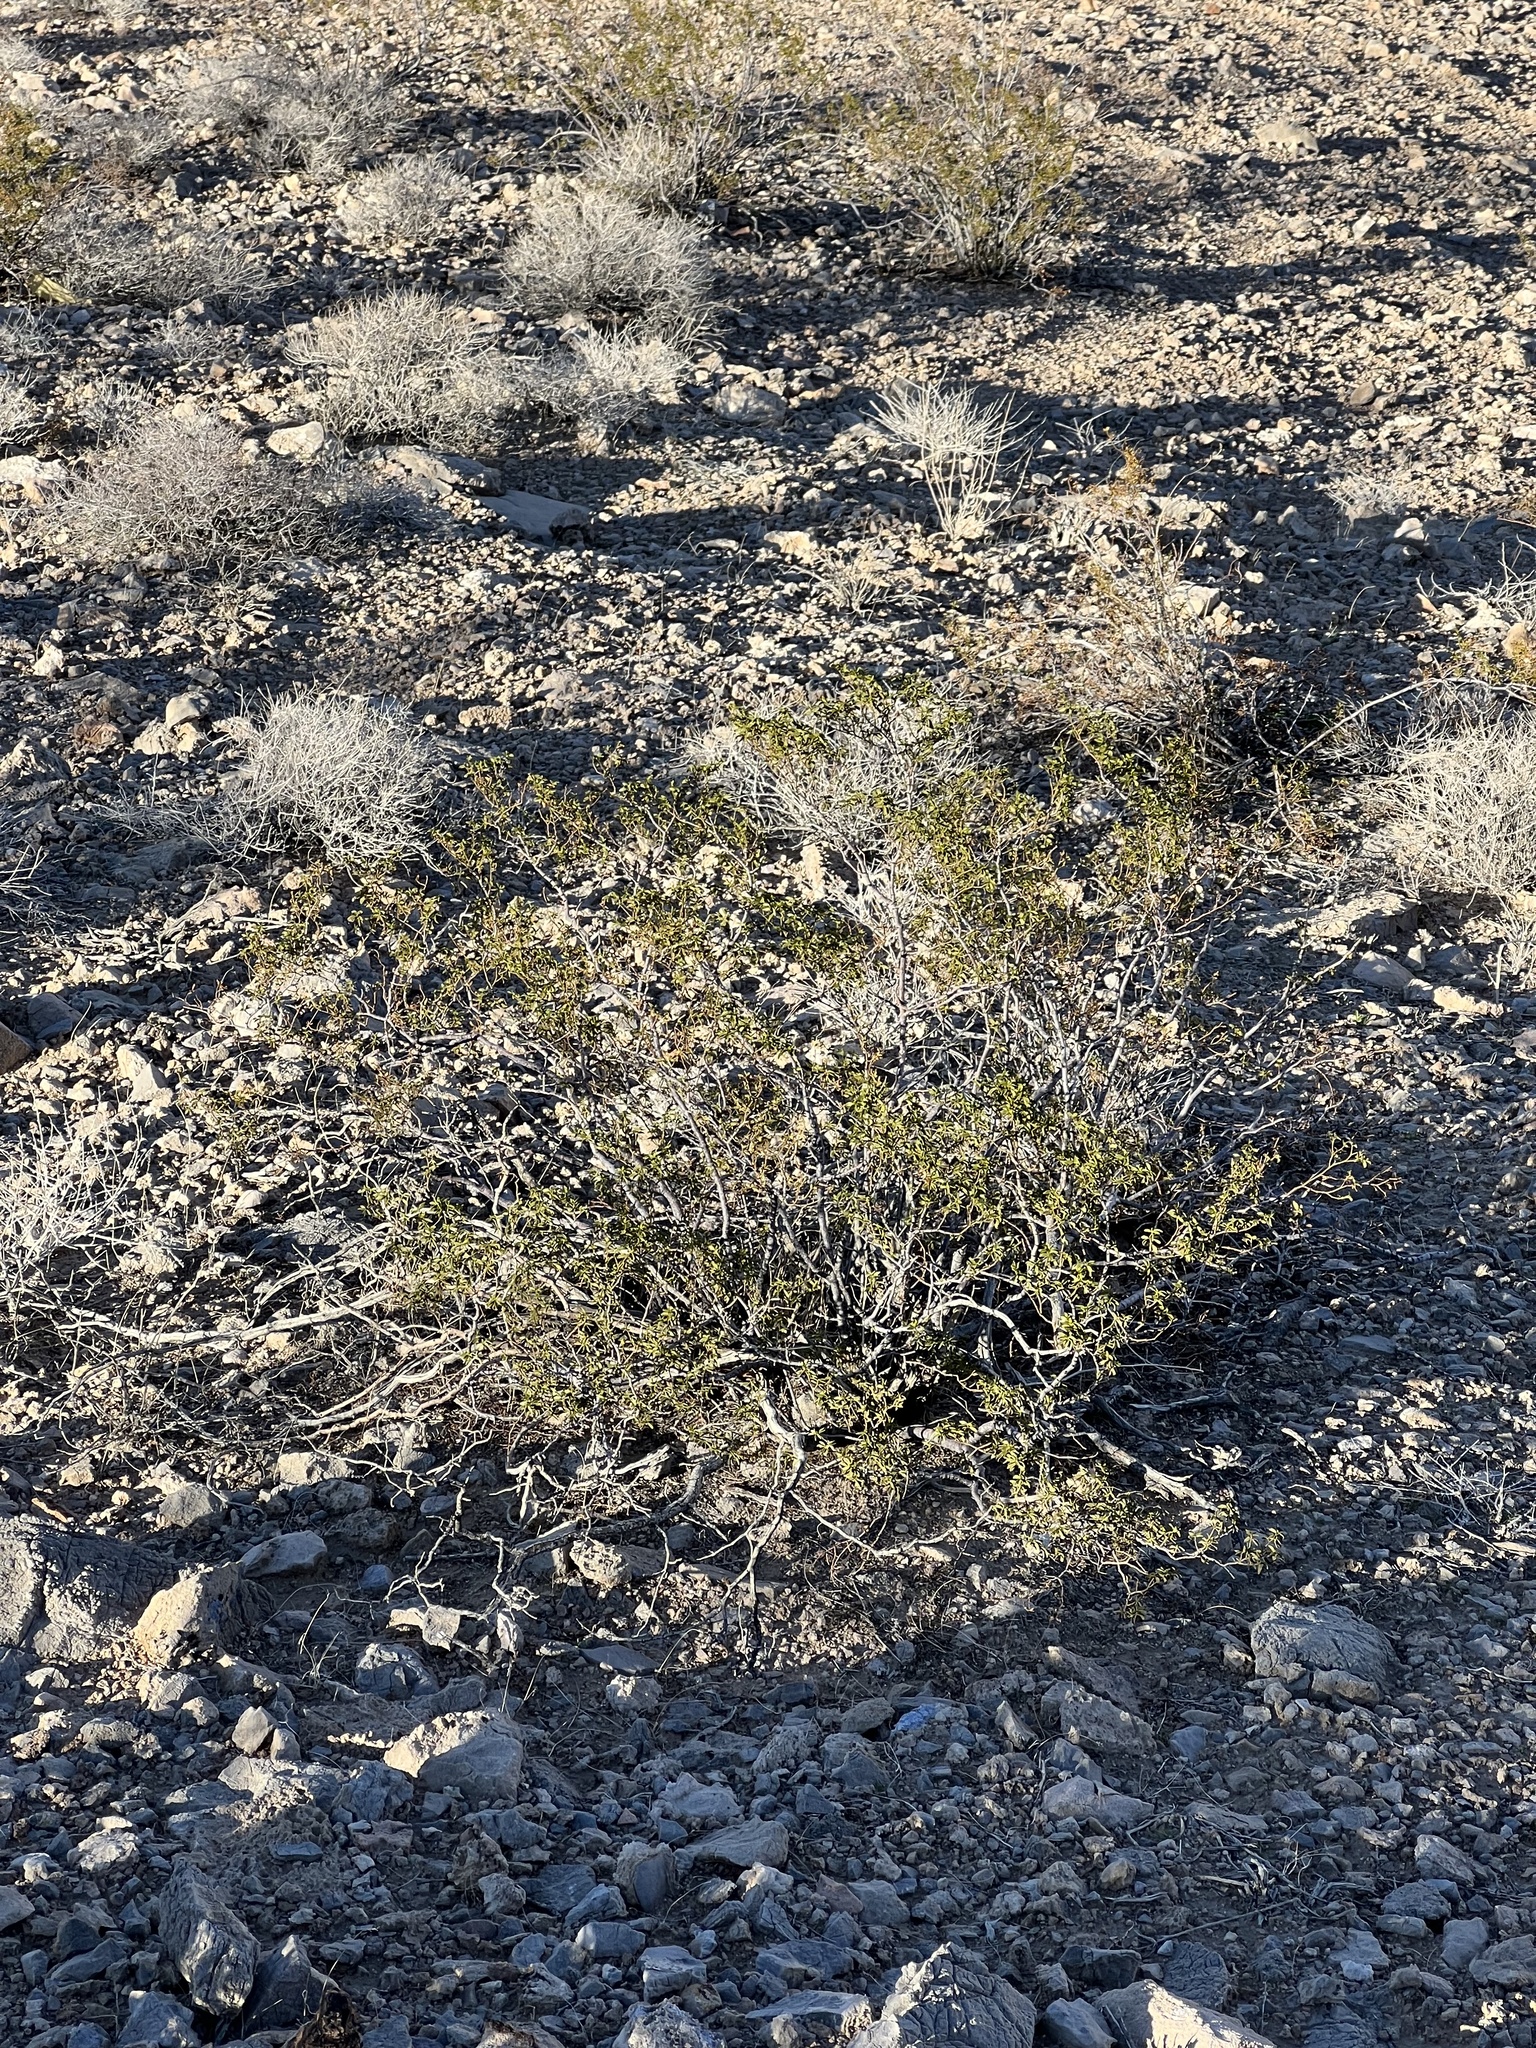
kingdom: Plantae
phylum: Tracheophyta
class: Magnoliopsida
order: Zygophyllales
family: Zygophyllaceae
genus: Larrea
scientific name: Larrea tridentata
